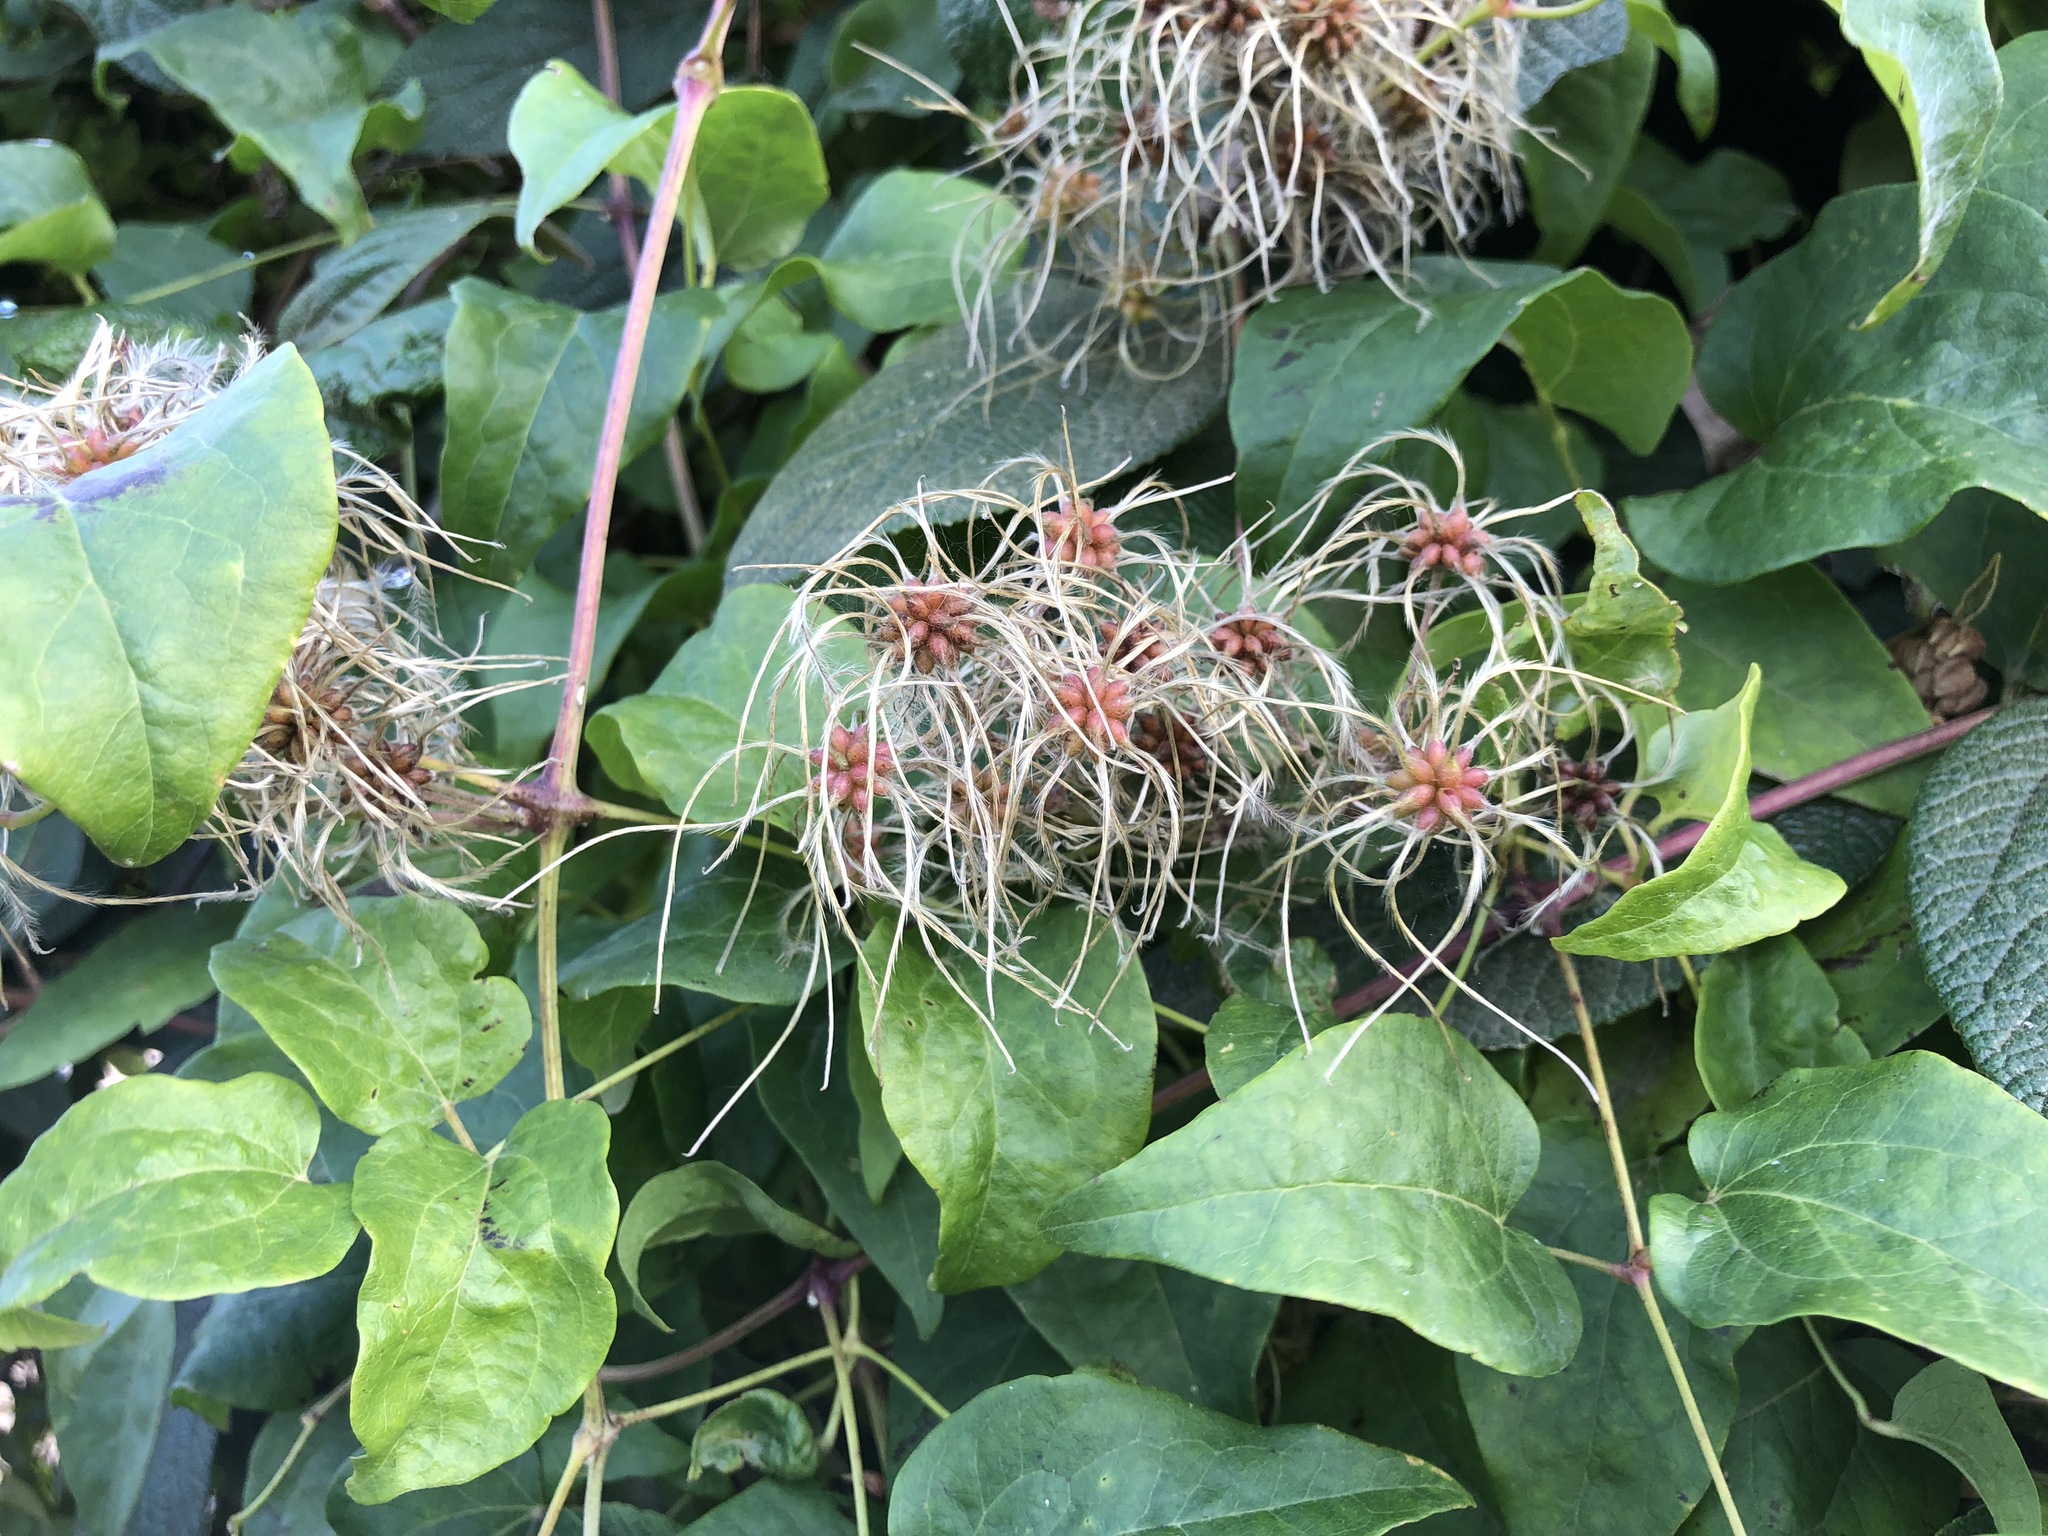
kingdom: Plantae
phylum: Tracheophyta
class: Magnoliopsida
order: Ranunculales
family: Ranunculaceae
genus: Clematis
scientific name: Clematis vitalba
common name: Evergreen clematis
